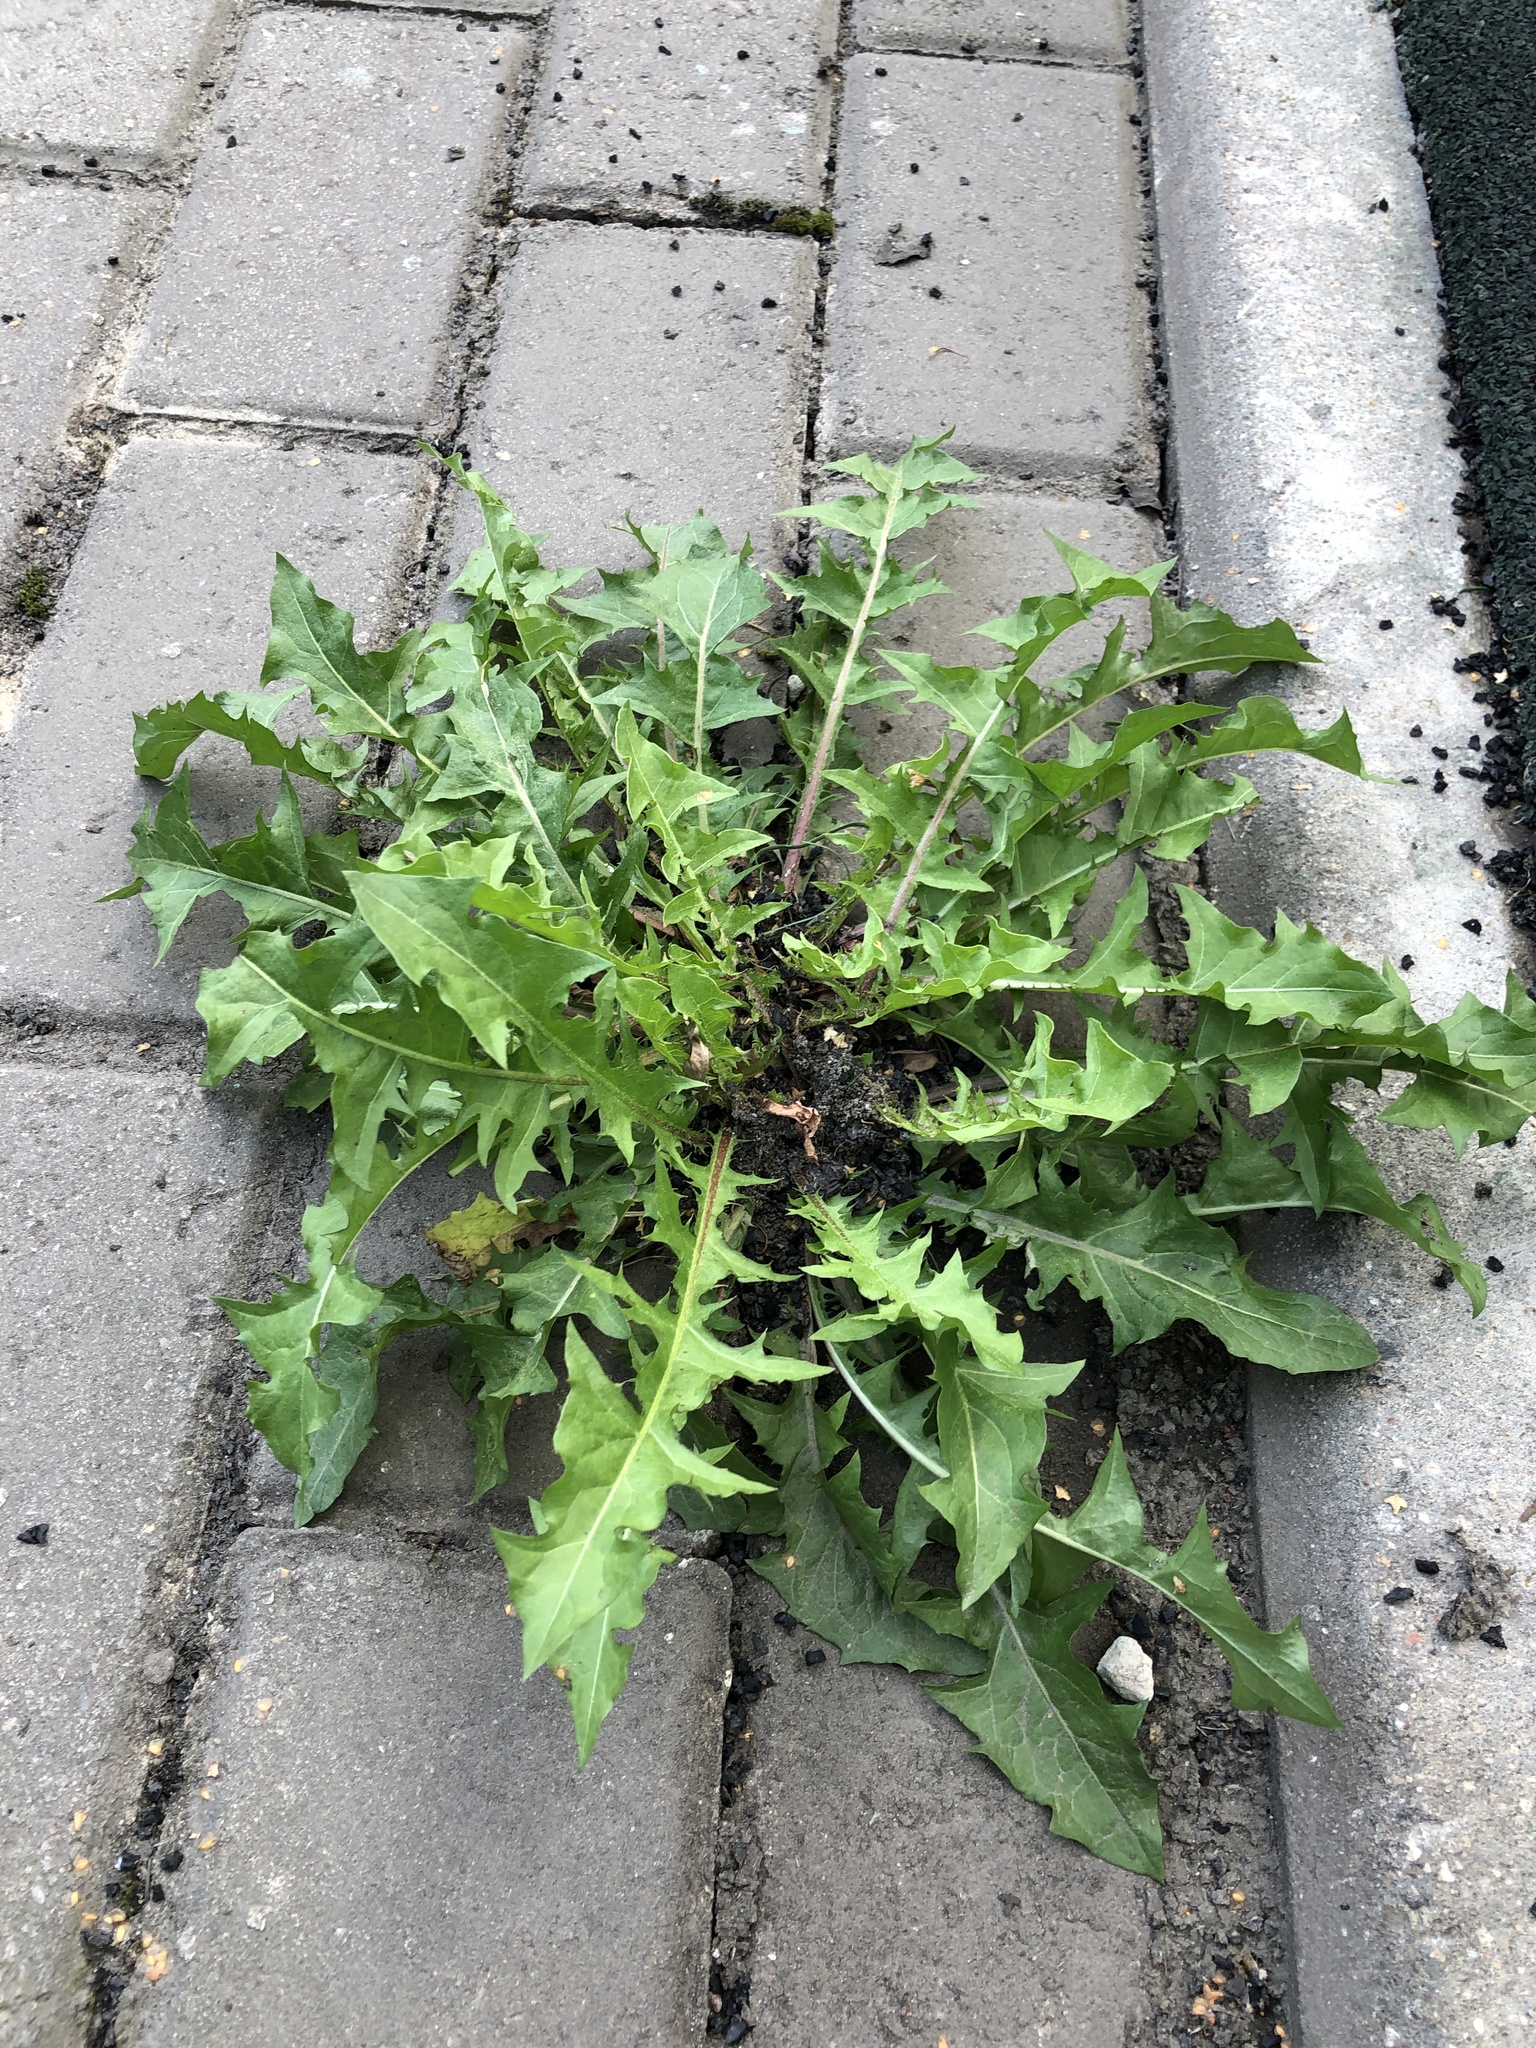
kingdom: Plantae
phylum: Tracheophyta
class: Magnoliopsida
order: Asterales
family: Asteraceae
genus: Taraxacum
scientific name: Taraxacum officinale
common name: Common dandelion
